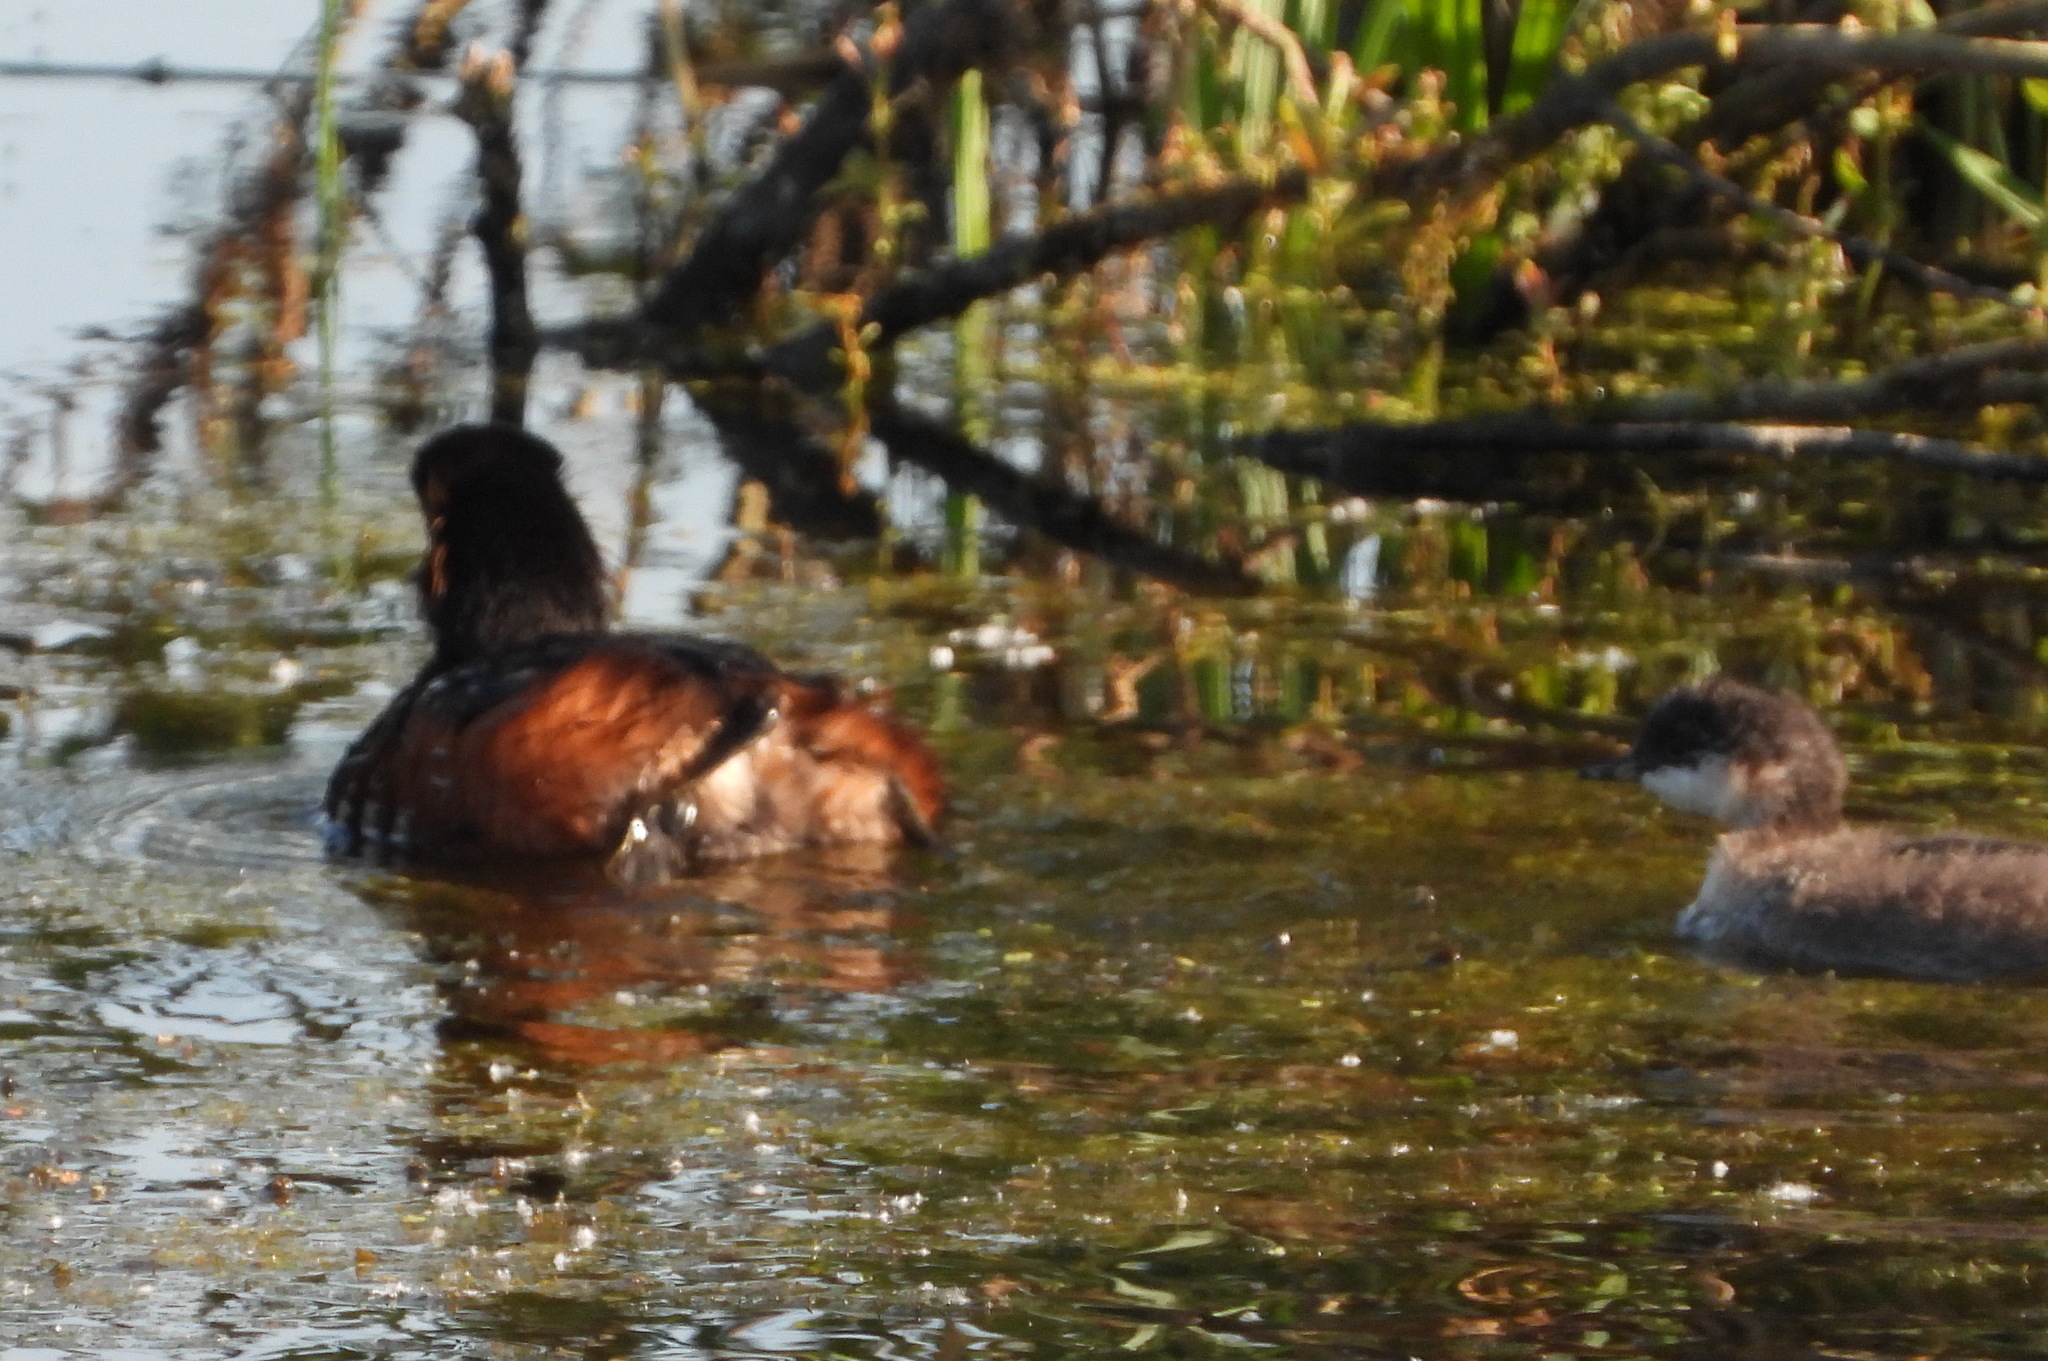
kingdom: Animalia
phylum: Chordata
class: Aves
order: Podicipediformes
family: Podicipedidae
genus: Podiceps
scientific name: Podiceps nigricollis
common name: Black-necked grebe
